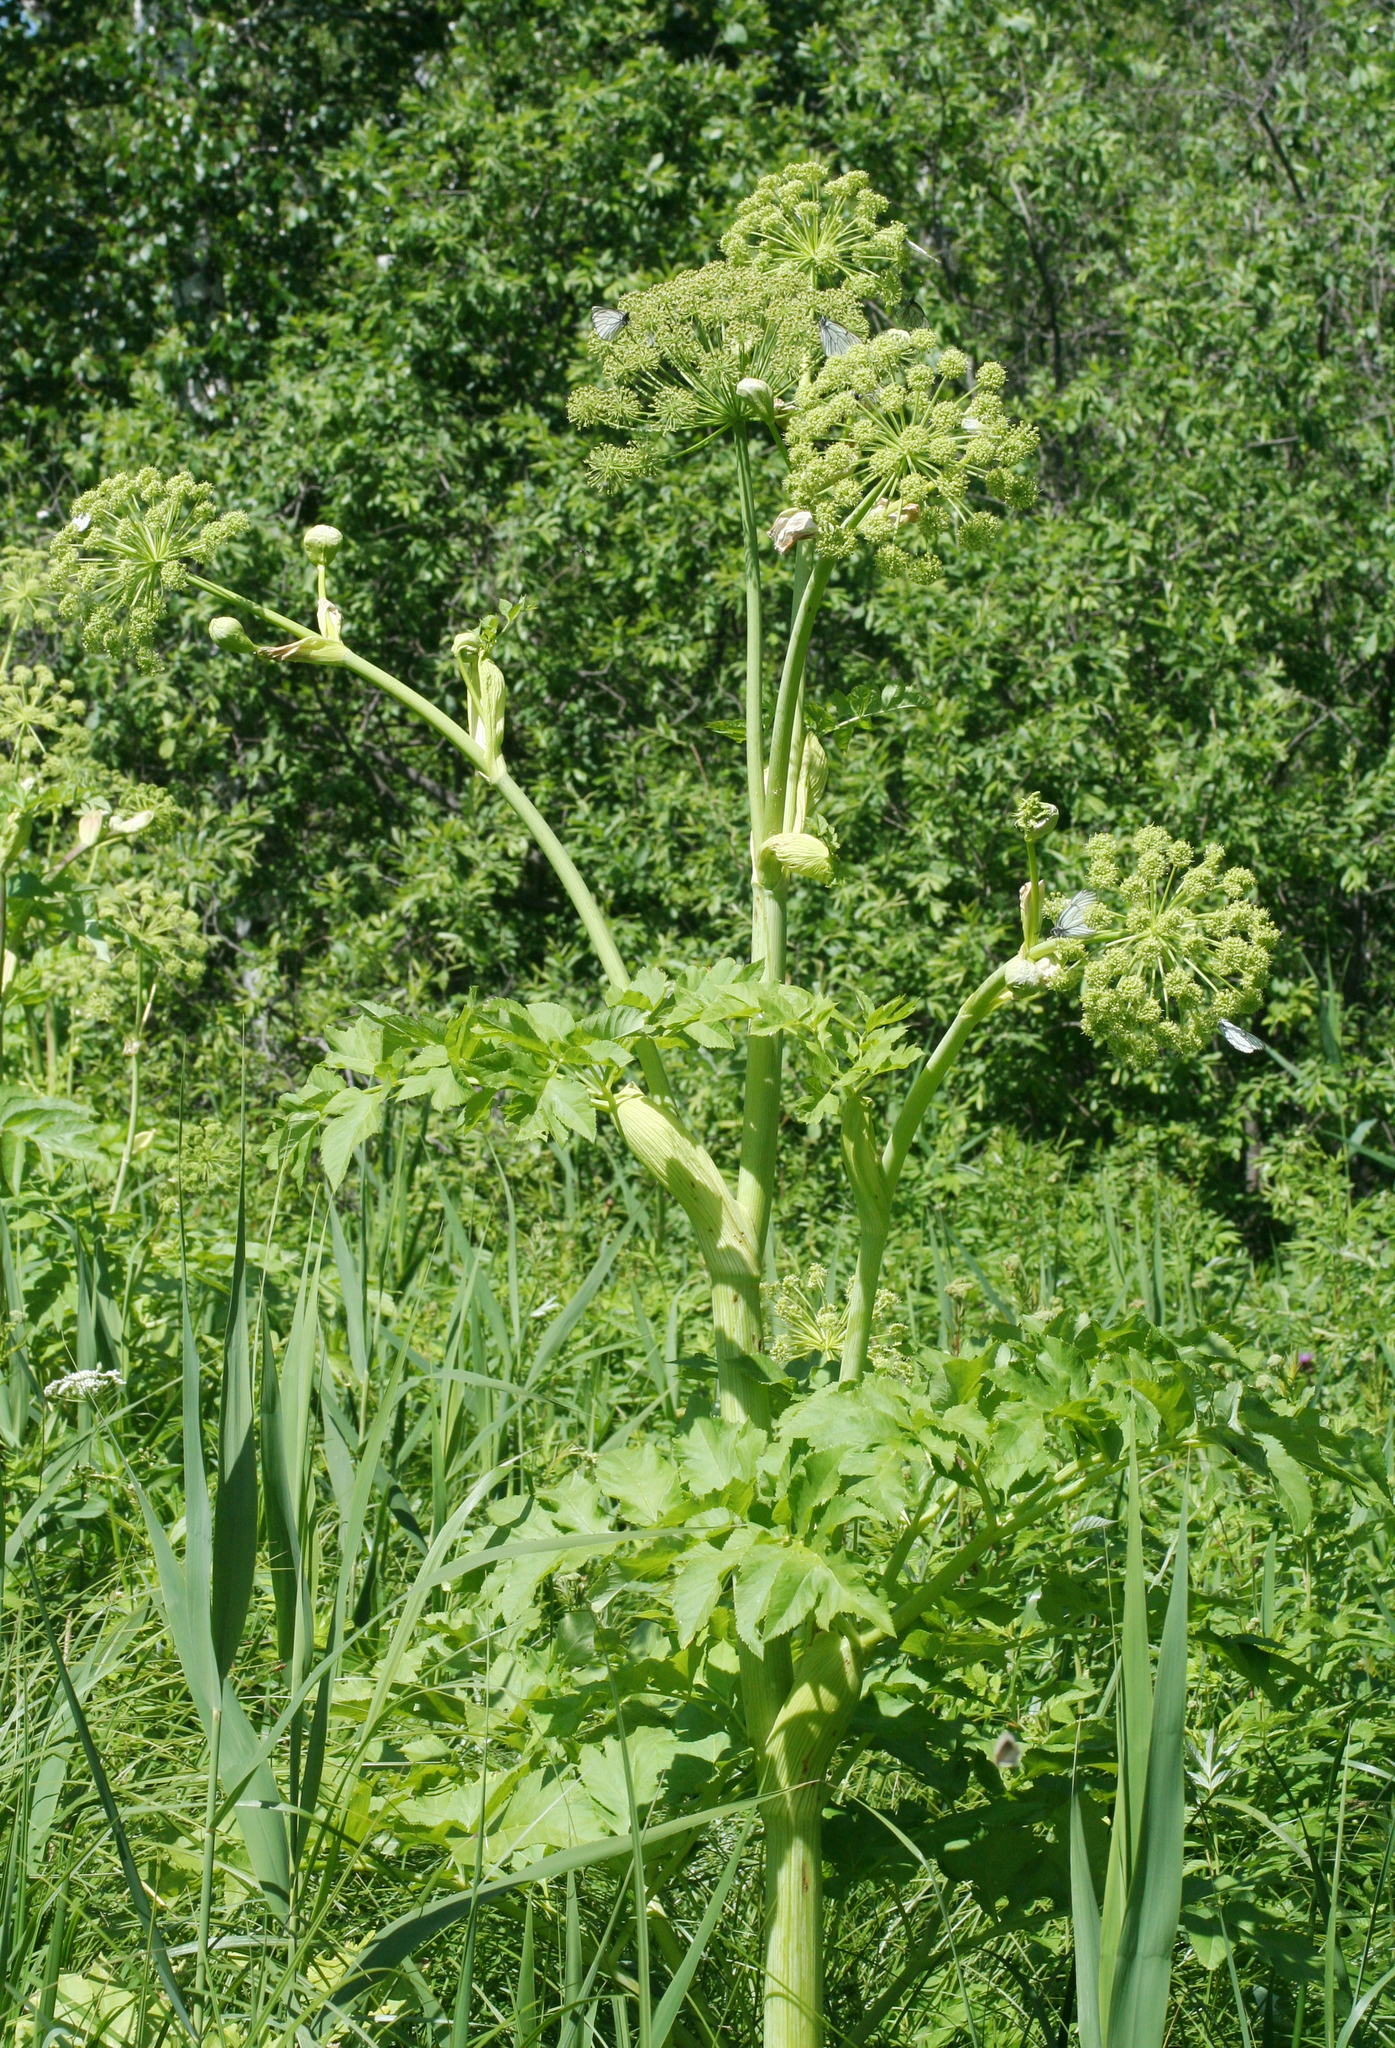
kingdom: Plantae
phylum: Tracheophyta
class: Magnoliopsida
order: Apiales
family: Apiaceae
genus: Angelica
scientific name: Angelica decurrens
